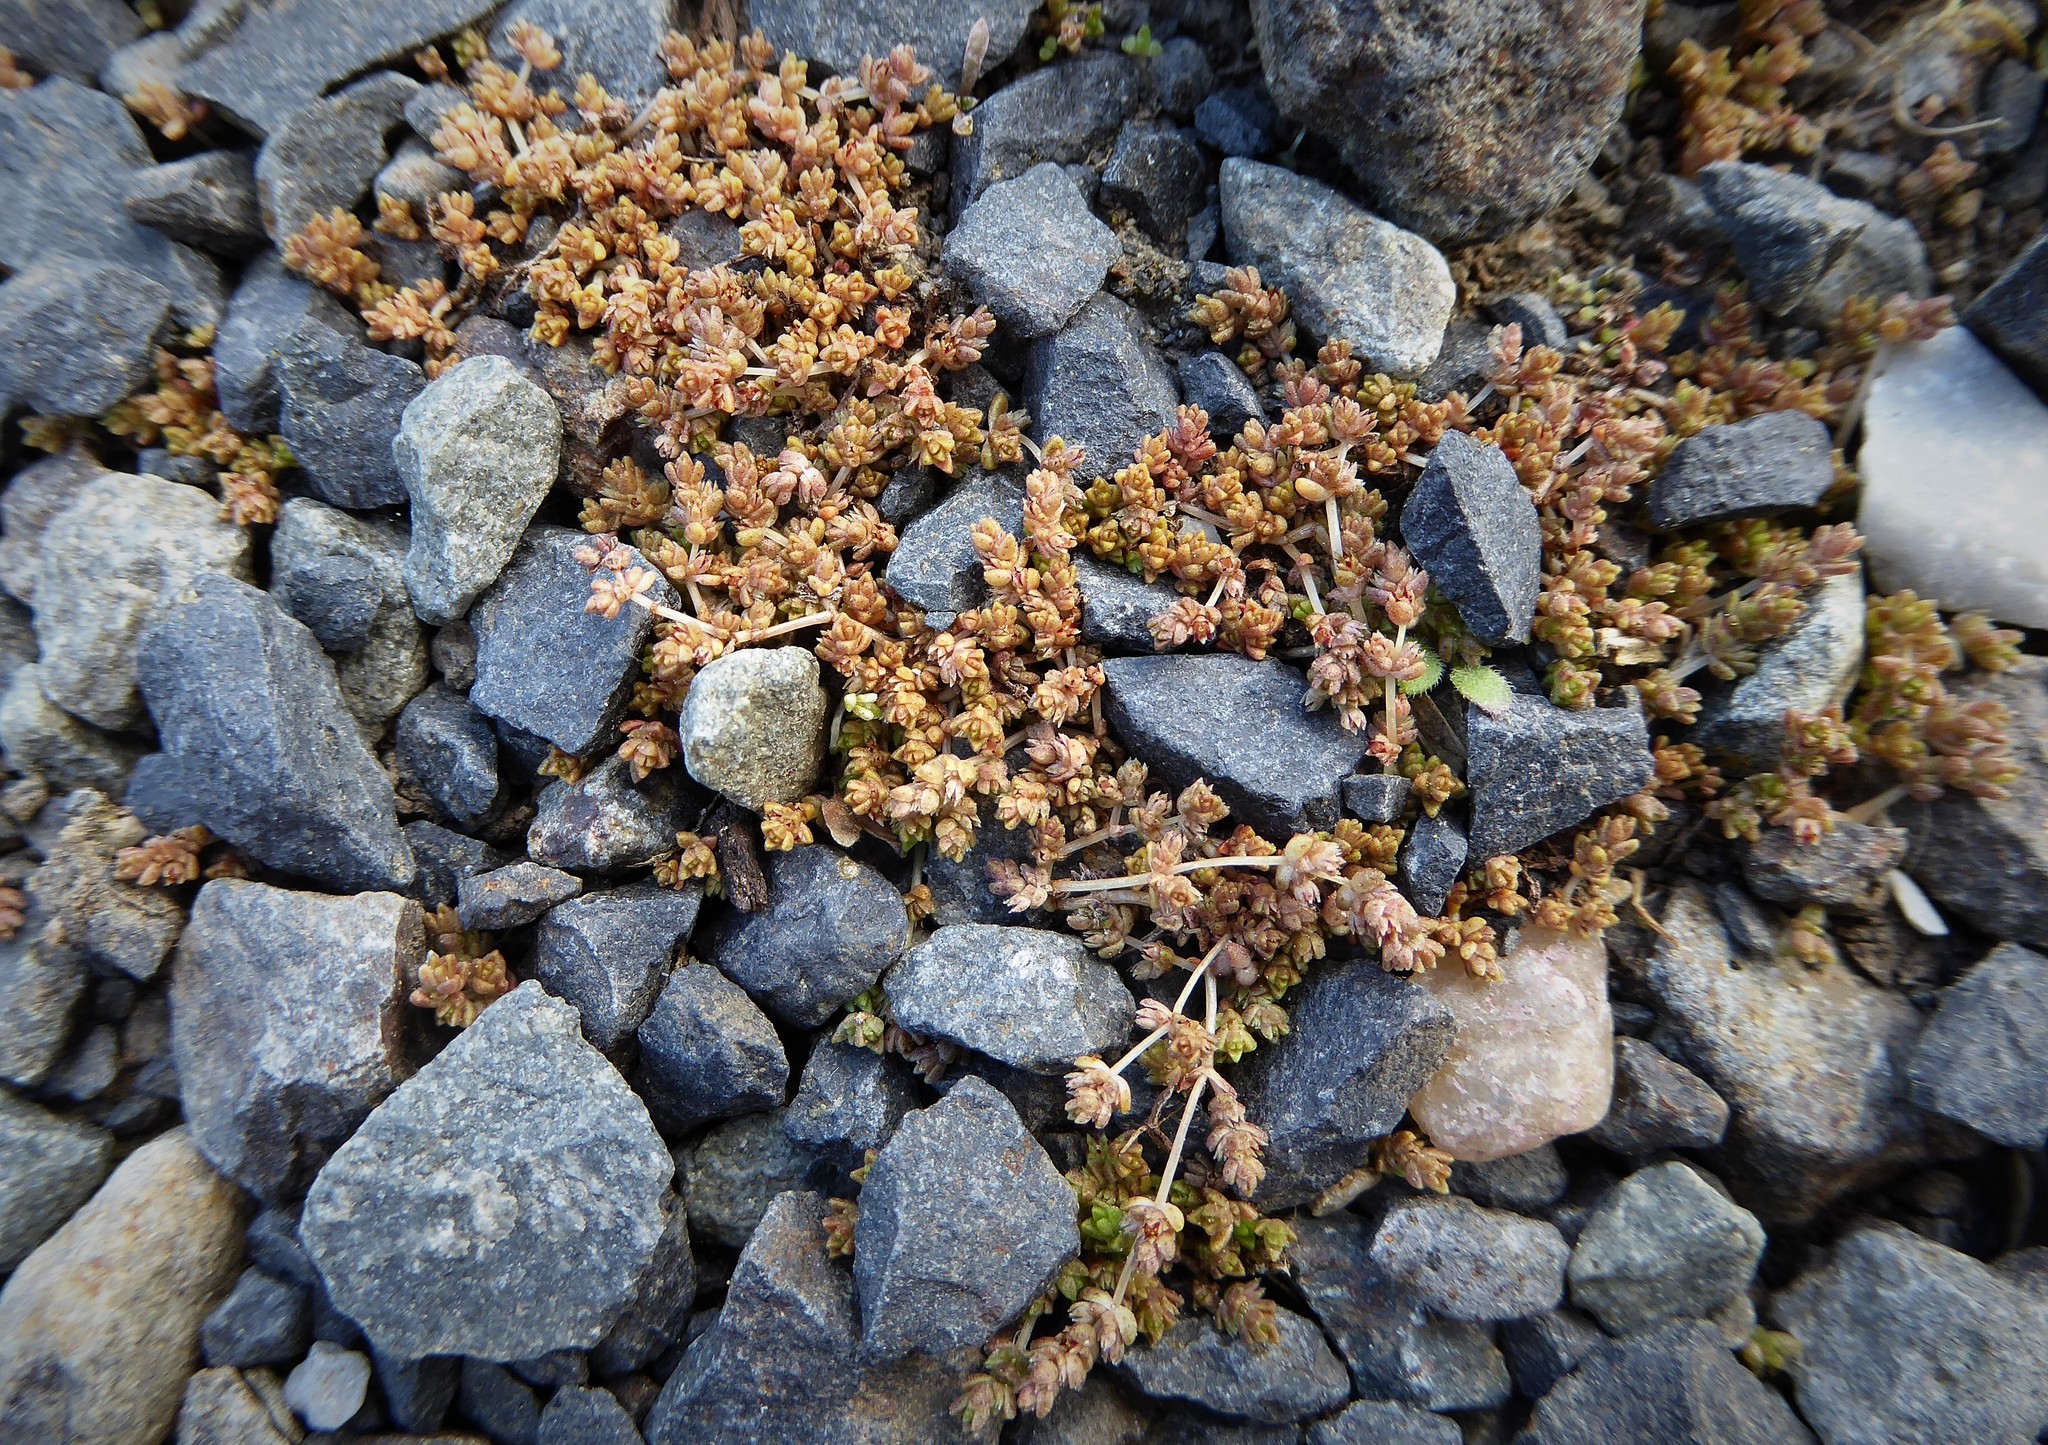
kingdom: Plantae
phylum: Tracheophyta
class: Magnoliopsida
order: Saxifragales
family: Crassulaceae
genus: Crassula
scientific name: Crassula mataikona
